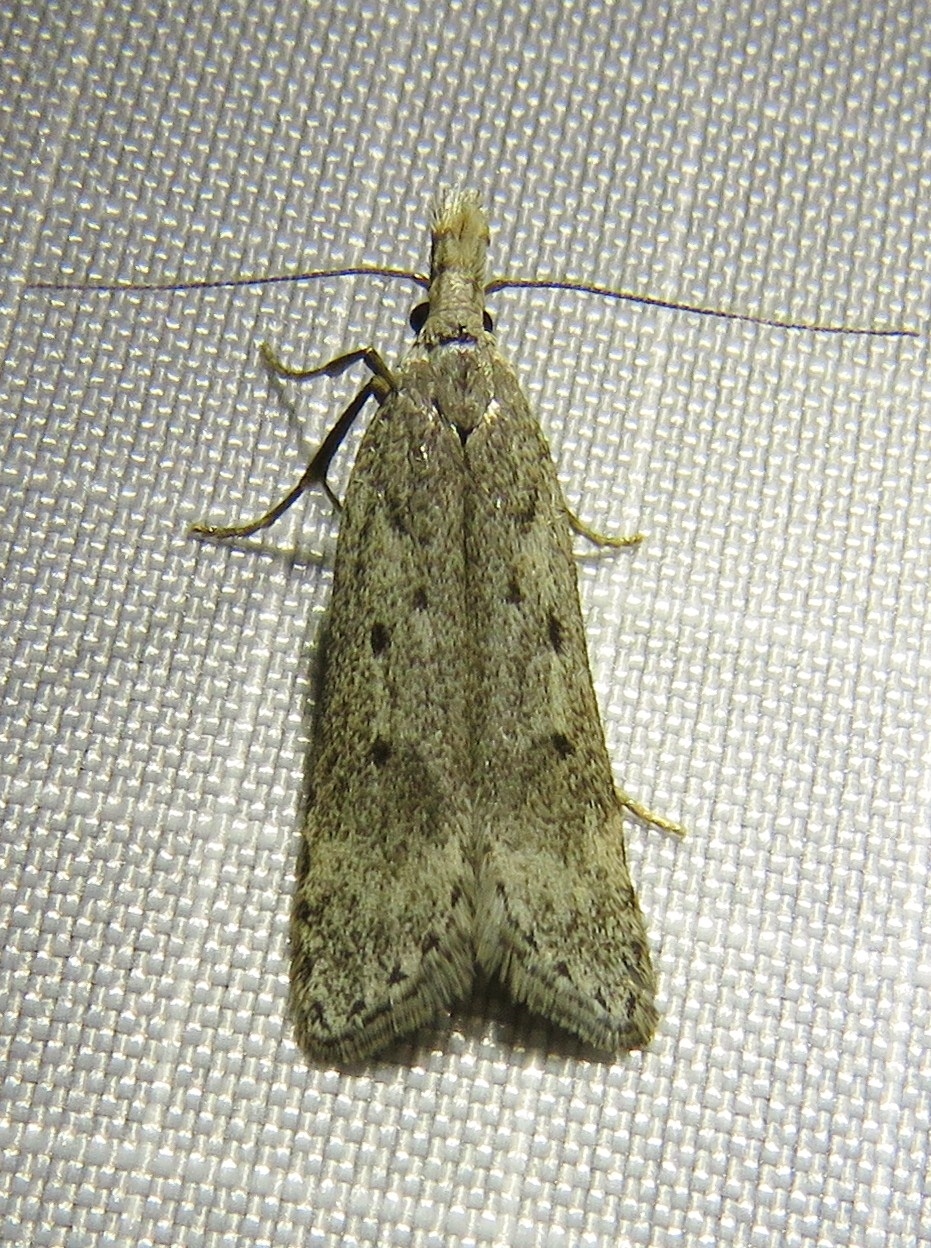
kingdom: Animalia
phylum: Arthropoda
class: Insecta
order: Lepidoptera
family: Gelechiidae
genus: Dichomeris
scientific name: Dichomeris juniperella
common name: Scotch crest
